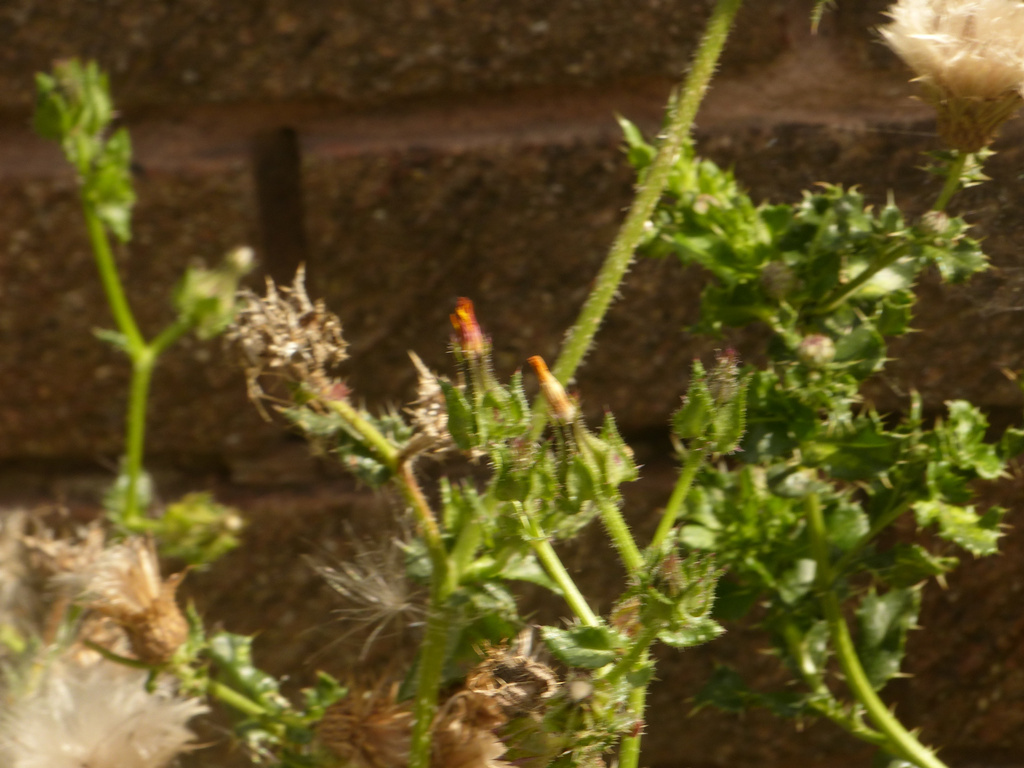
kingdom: Plantae
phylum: Tracheophyta
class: Magnoliopsida
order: Asterales
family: Asteraceae
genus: Helminthotheca
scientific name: Helminthotheca echioides
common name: Ox-tongue
